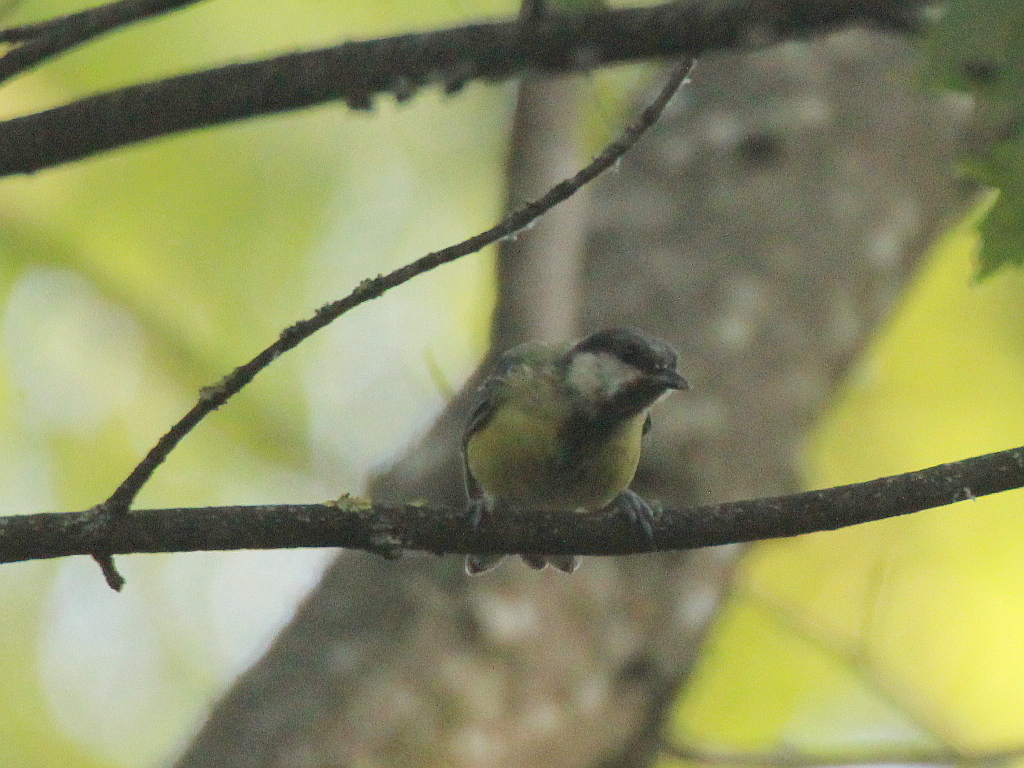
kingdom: Animalia
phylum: Chordata
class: Aves
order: Passeriformes
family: Paridae
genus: Parus
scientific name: Parus major
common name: Great tit
